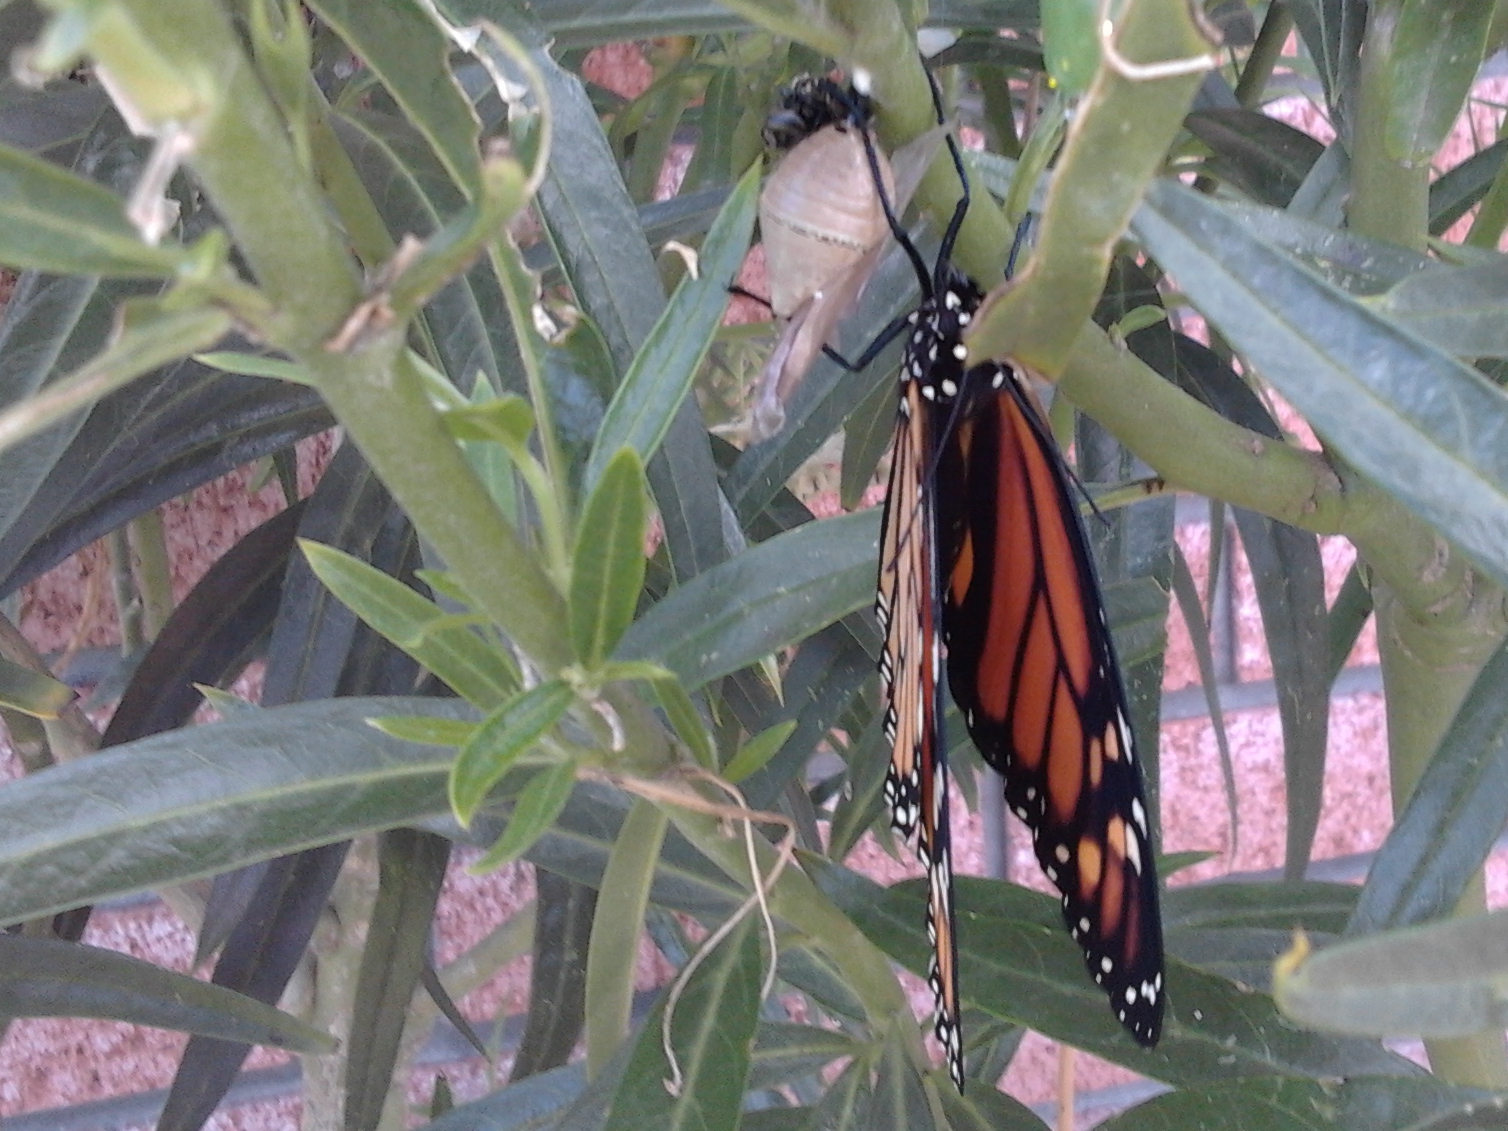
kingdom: Animalia
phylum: Arthropoda
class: Insecta
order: Lepidoptera
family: Nymphalidae
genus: Danaus
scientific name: Danaus plexippus
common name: Monarch
